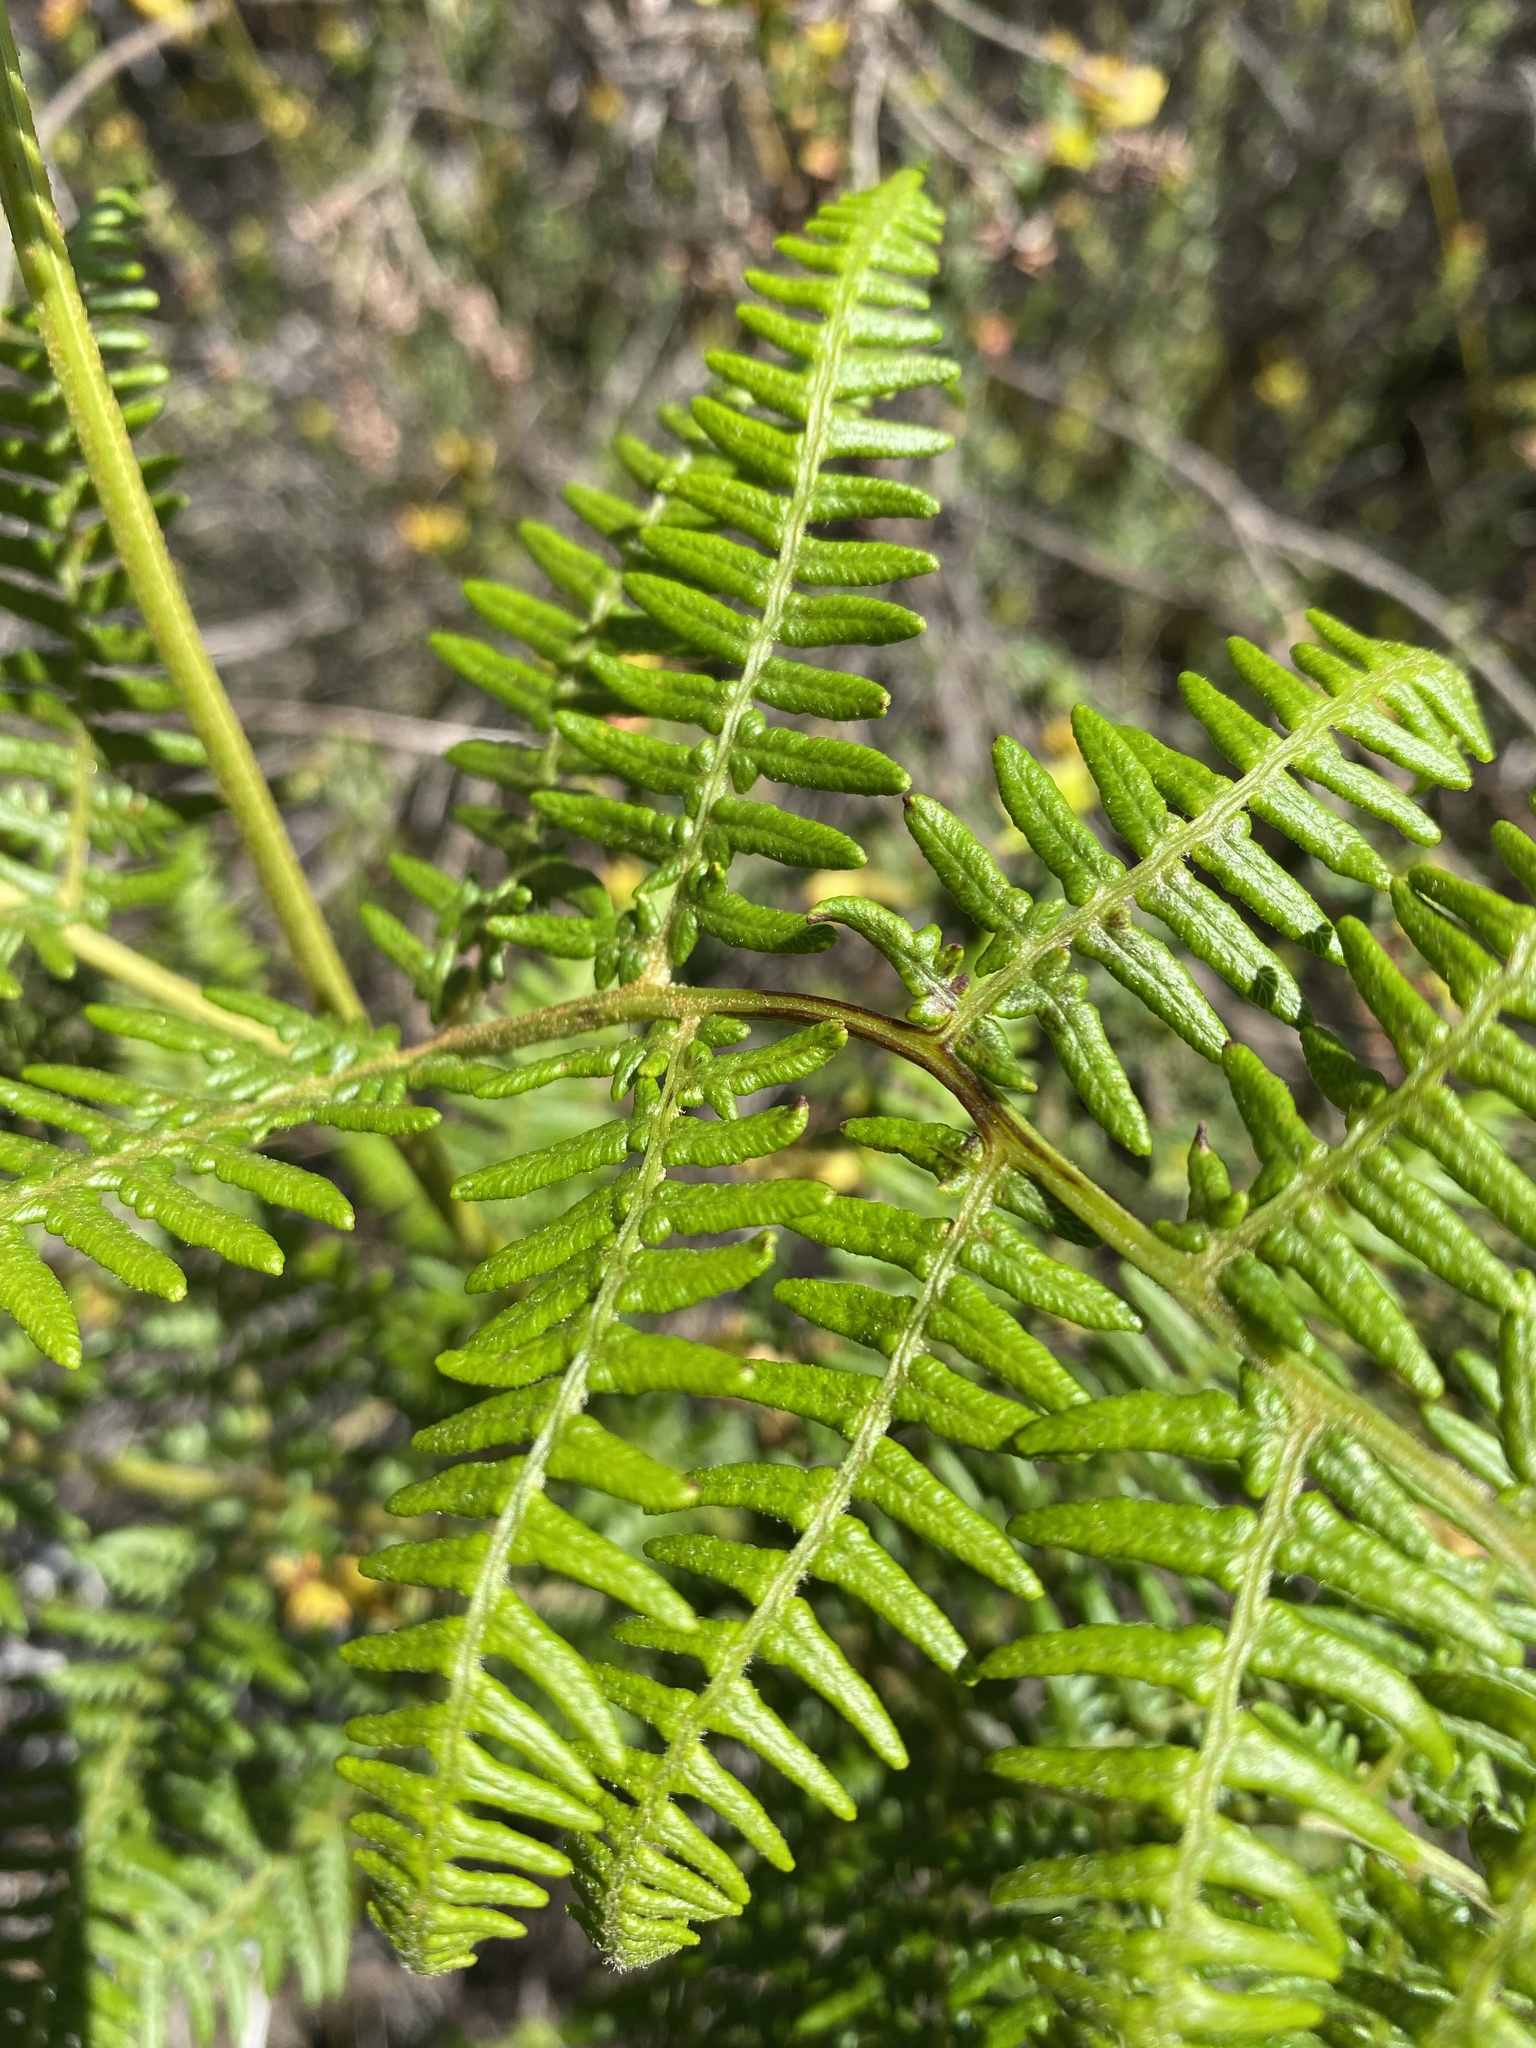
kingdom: Plantae
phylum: Tracheophyta
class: Polypodiopsida
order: Polypodiales
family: Dennstaedtiaceae
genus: Pteridium
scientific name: Pteridium aquilinum
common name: Bracken
